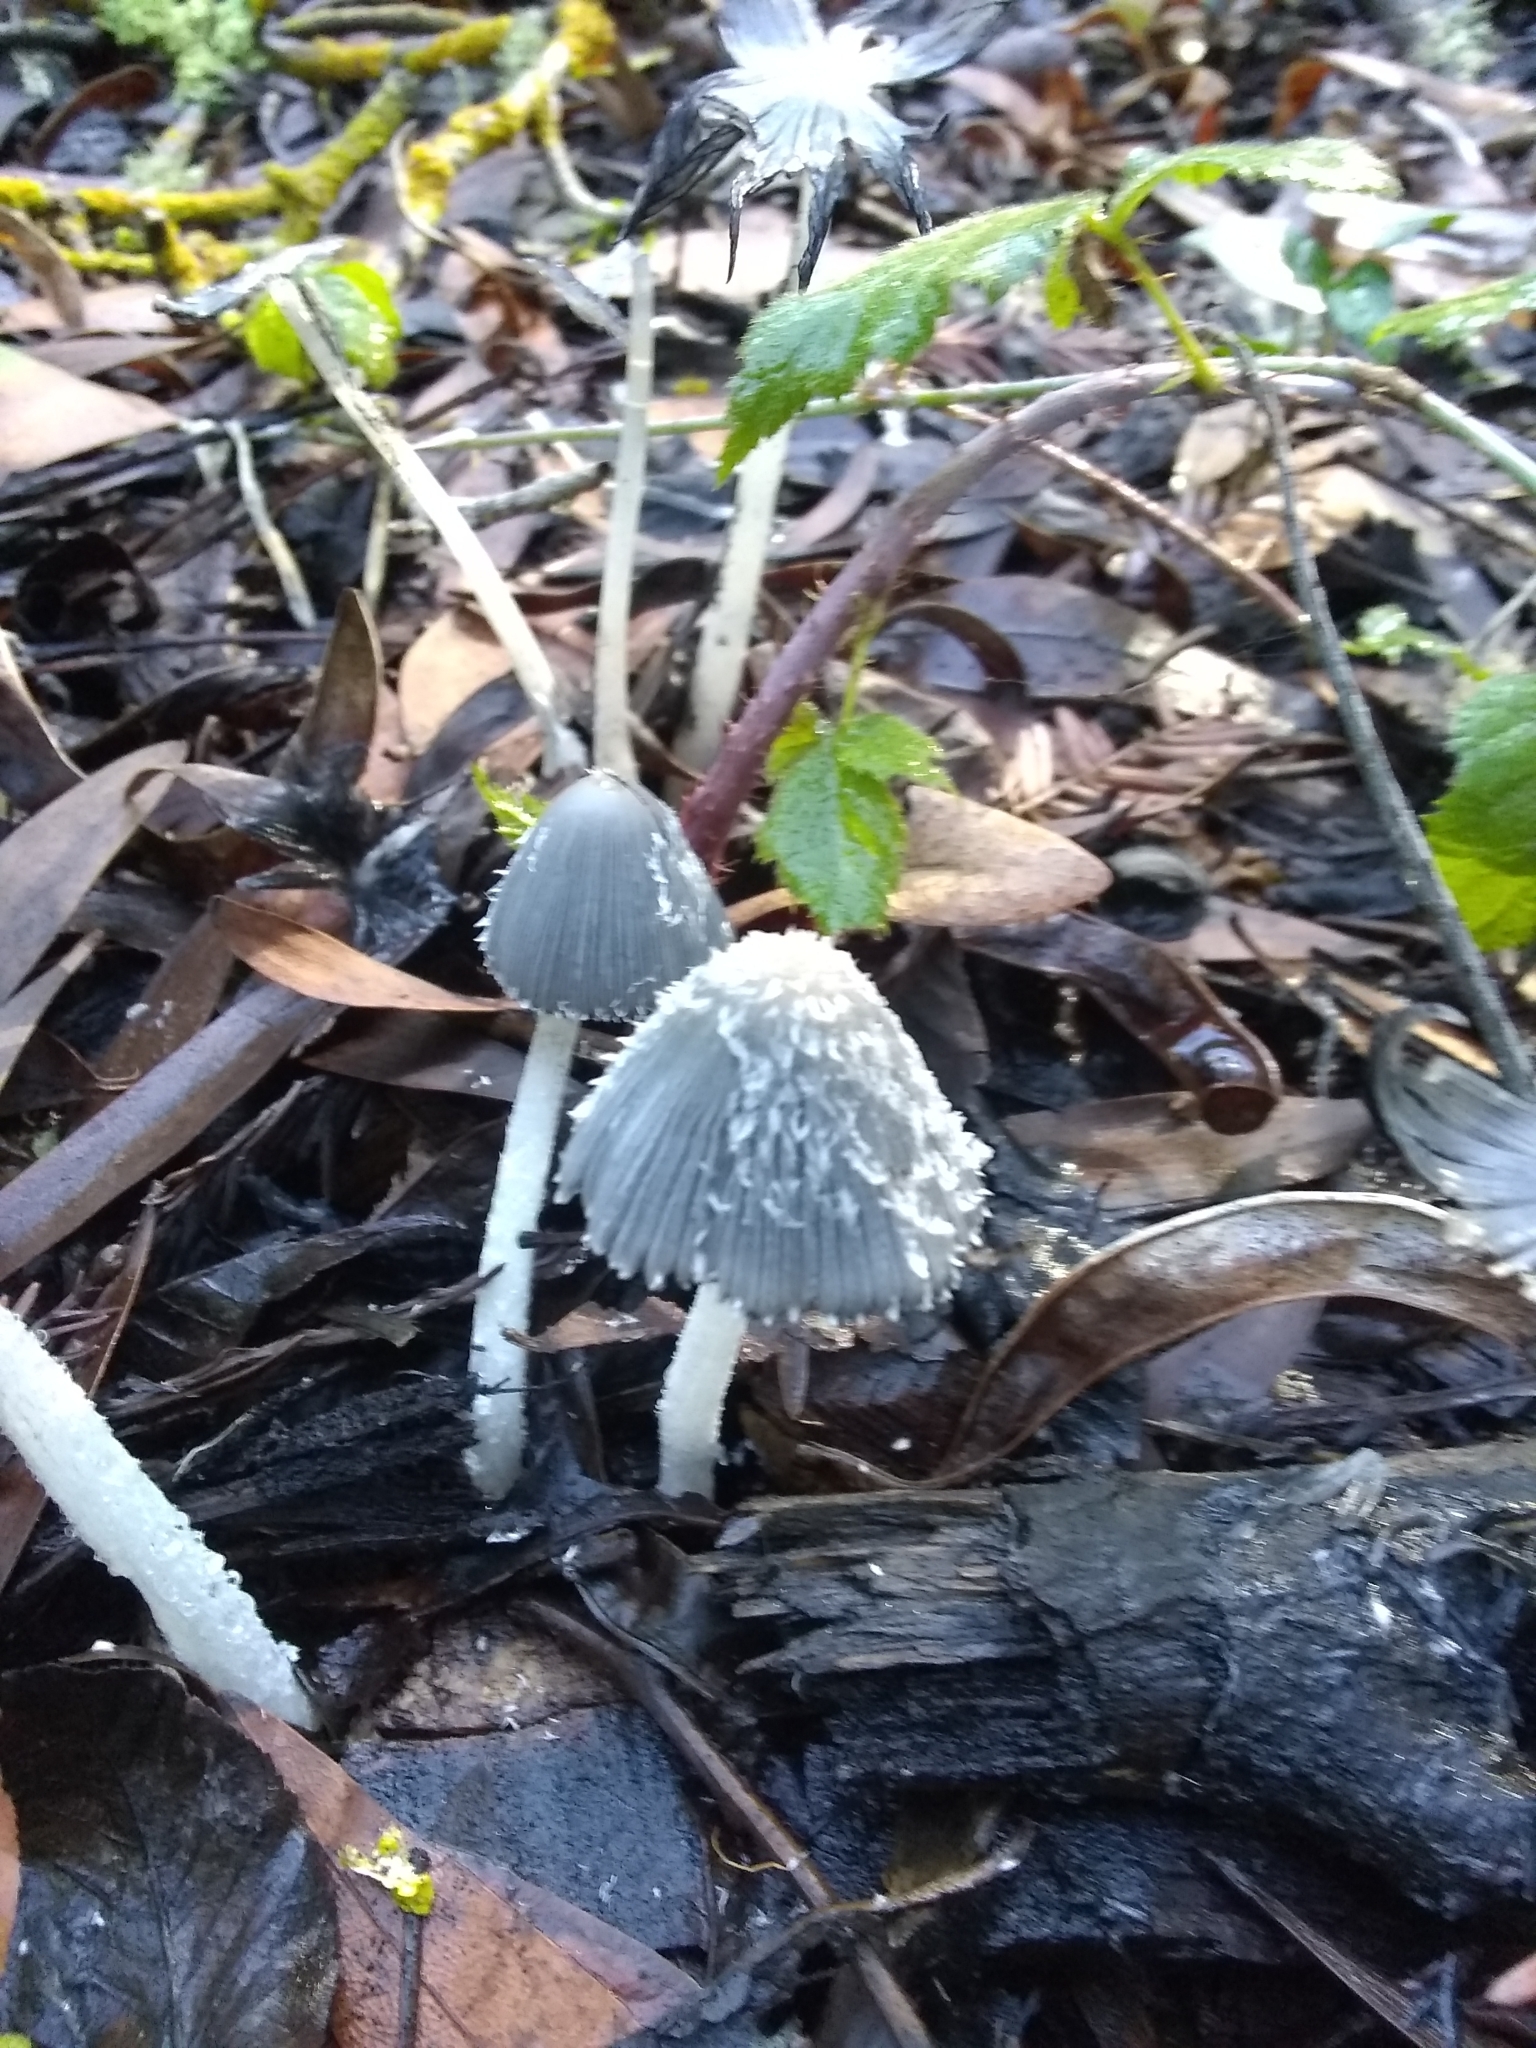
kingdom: Fungi
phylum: Basidiomycota
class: Agaricomycetes
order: Agaricales
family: Psathyrellaceae
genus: Coprinopsis
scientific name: Coprinopsis lagopus
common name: Hare'sfoot inkcap
